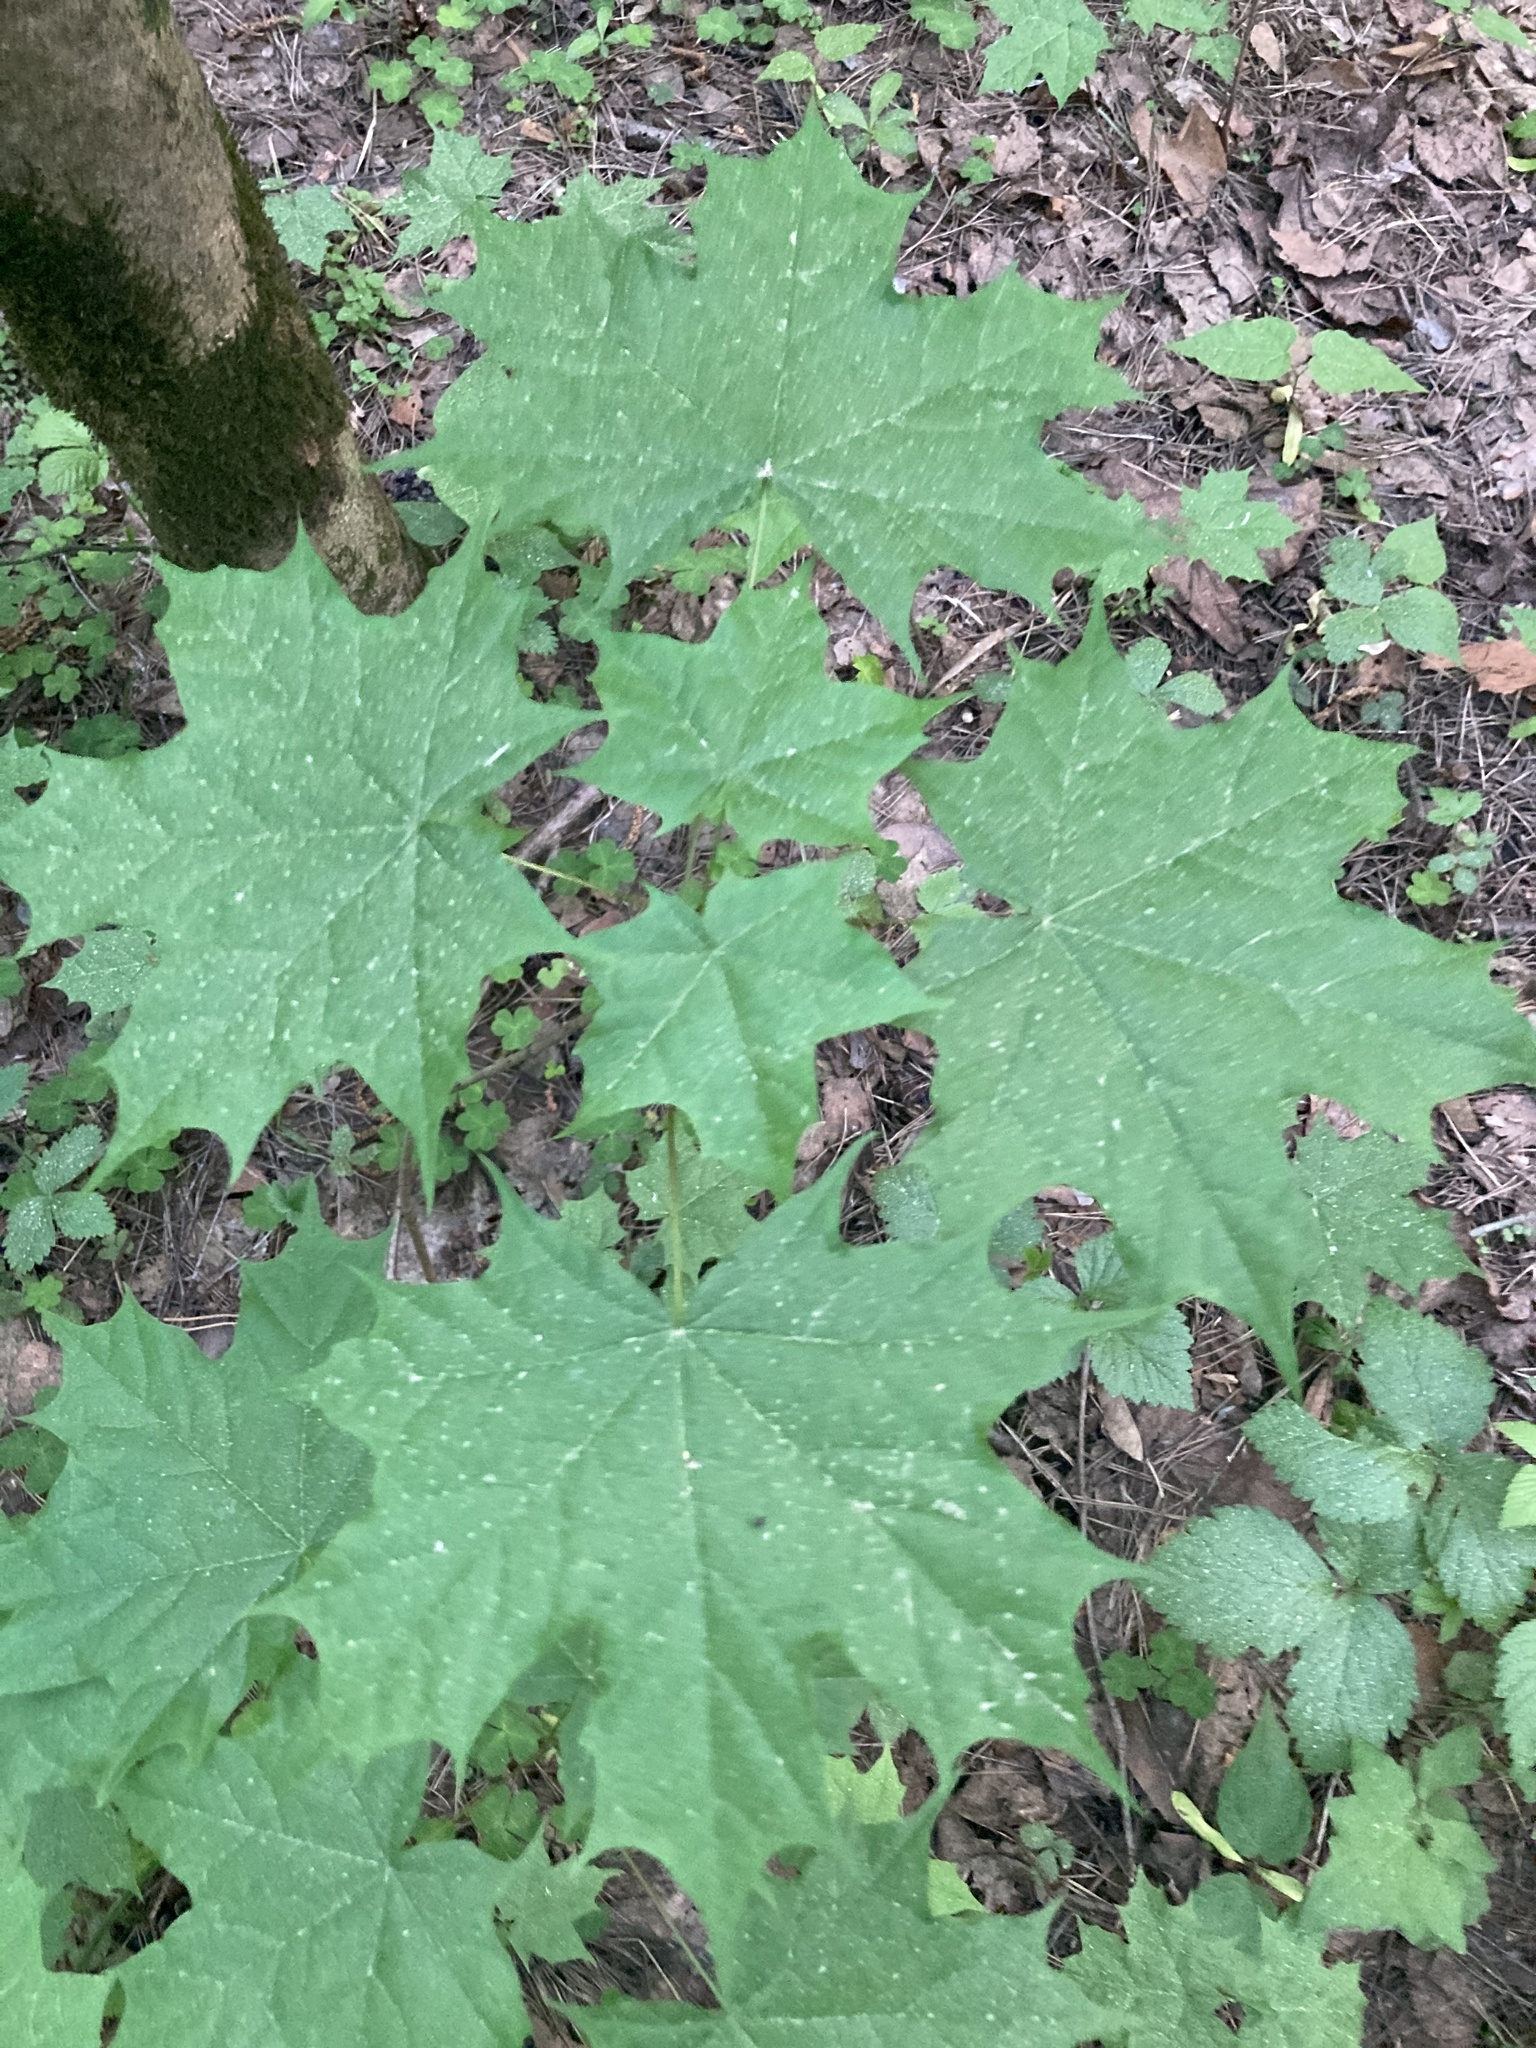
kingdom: Plantae
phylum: Tracheophyta
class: Magnoliopsida
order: Sapindales
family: Sapindaceae
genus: Acer
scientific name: Acer platanoides
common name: Norway maple
